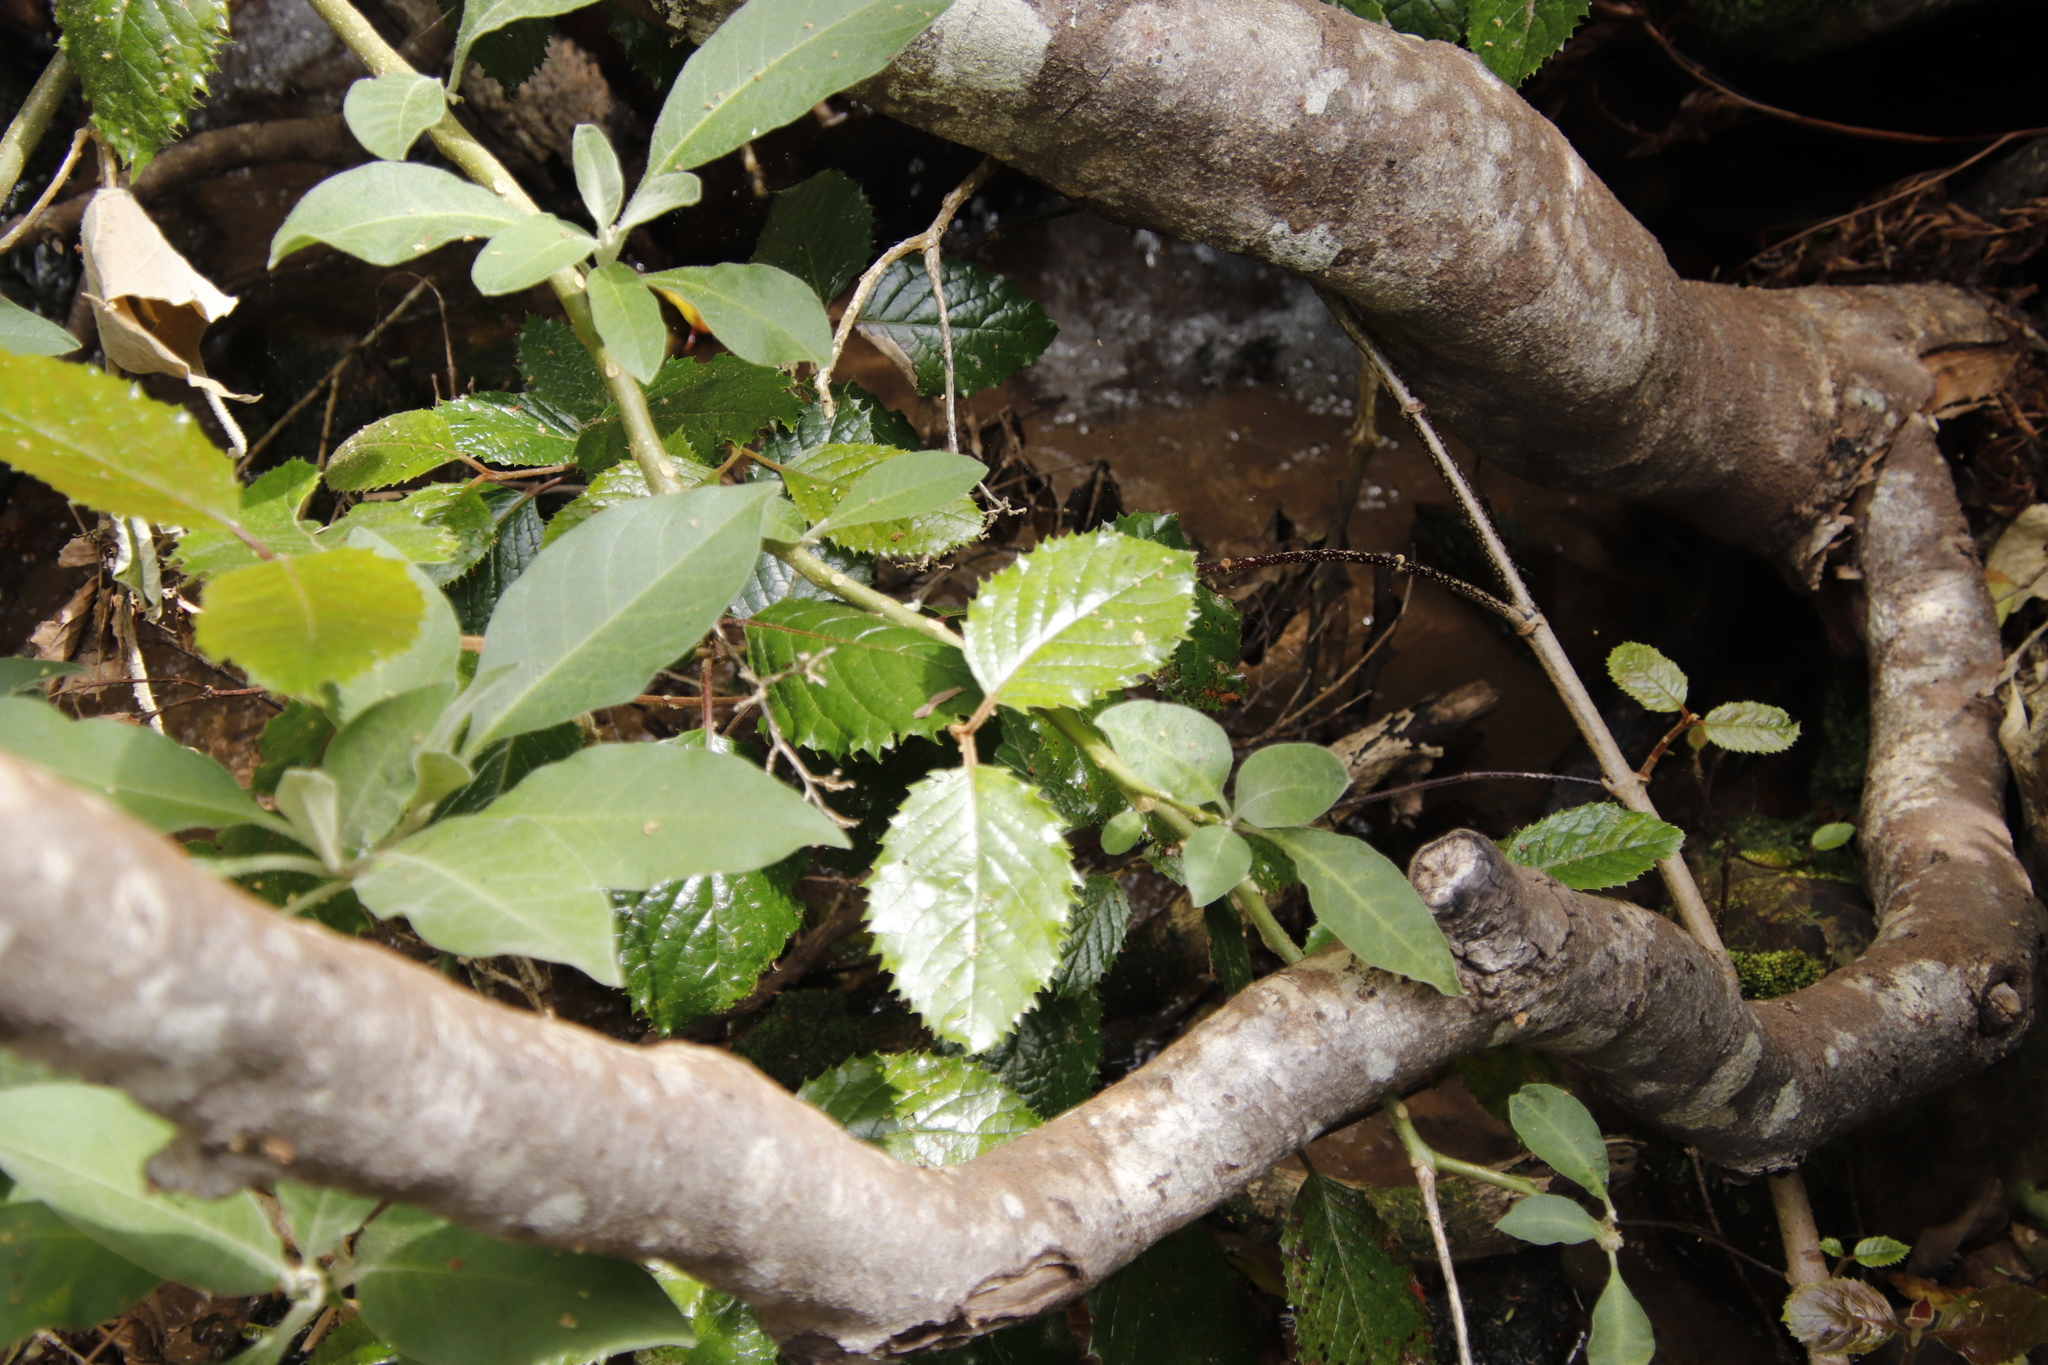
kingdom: Plantae
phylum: Tracheophyta
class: Magnoliopsida
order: Cornales
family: Curtisiaceae
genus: Curtisia
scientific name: Curtisia dentata
